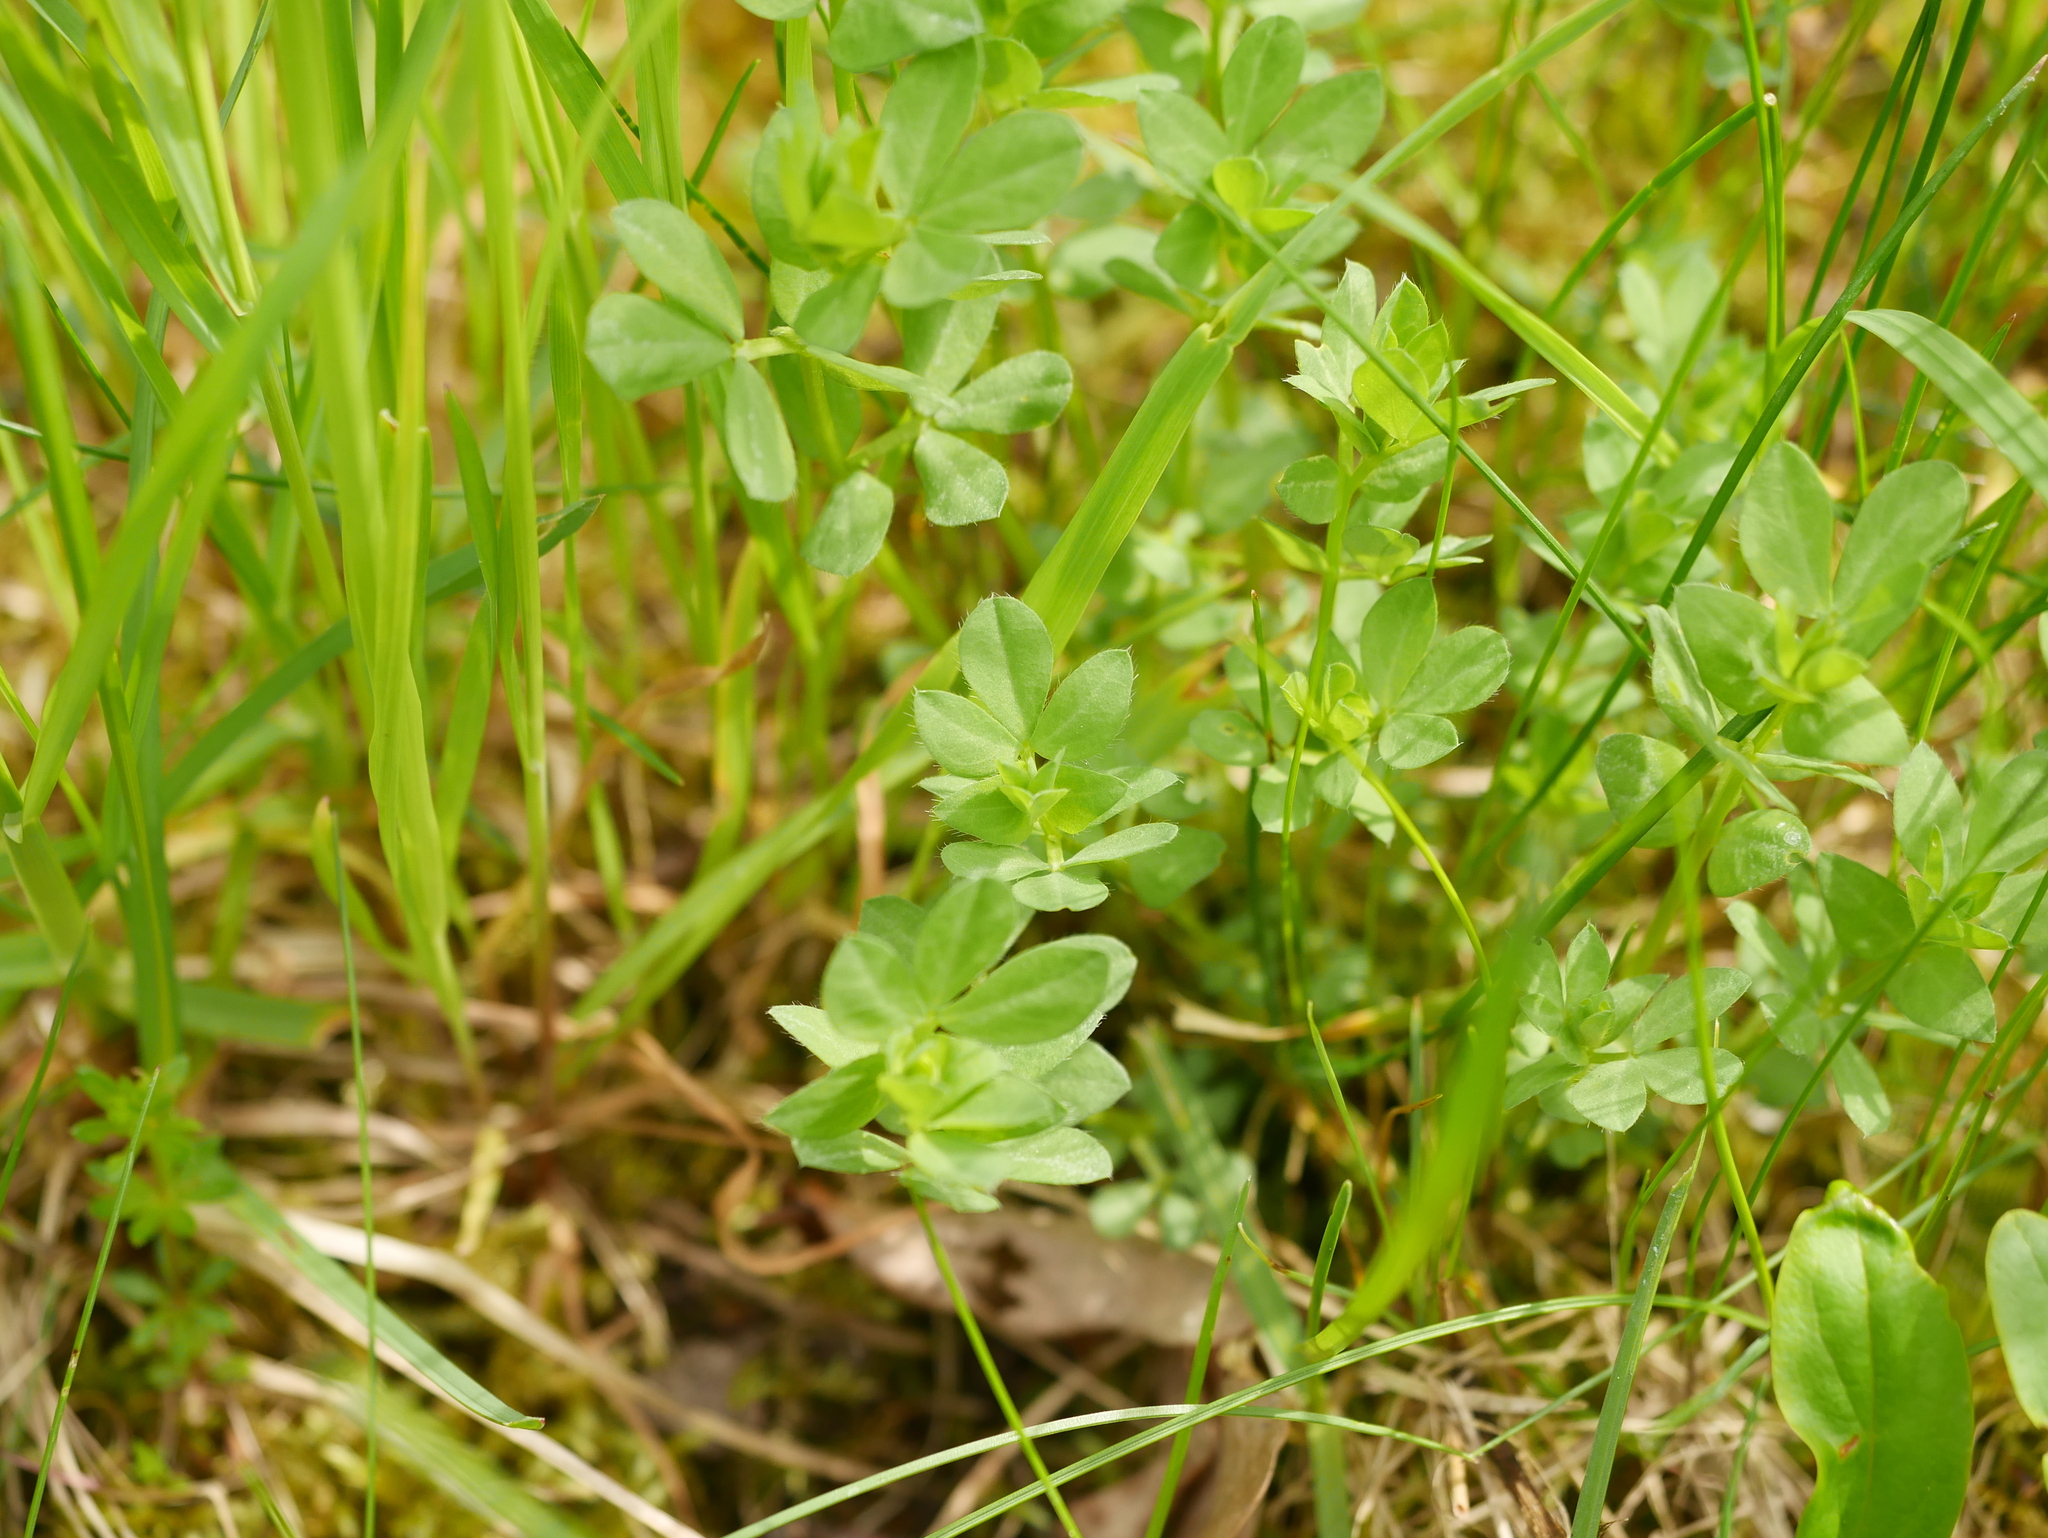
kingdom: Plantae
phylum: Tracheophyta
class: Magnoliopsida
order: Fabales
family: Fabaceae
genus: Lotus
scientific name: Lotus corniculatus
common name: Common bird's-foot-trefoil
